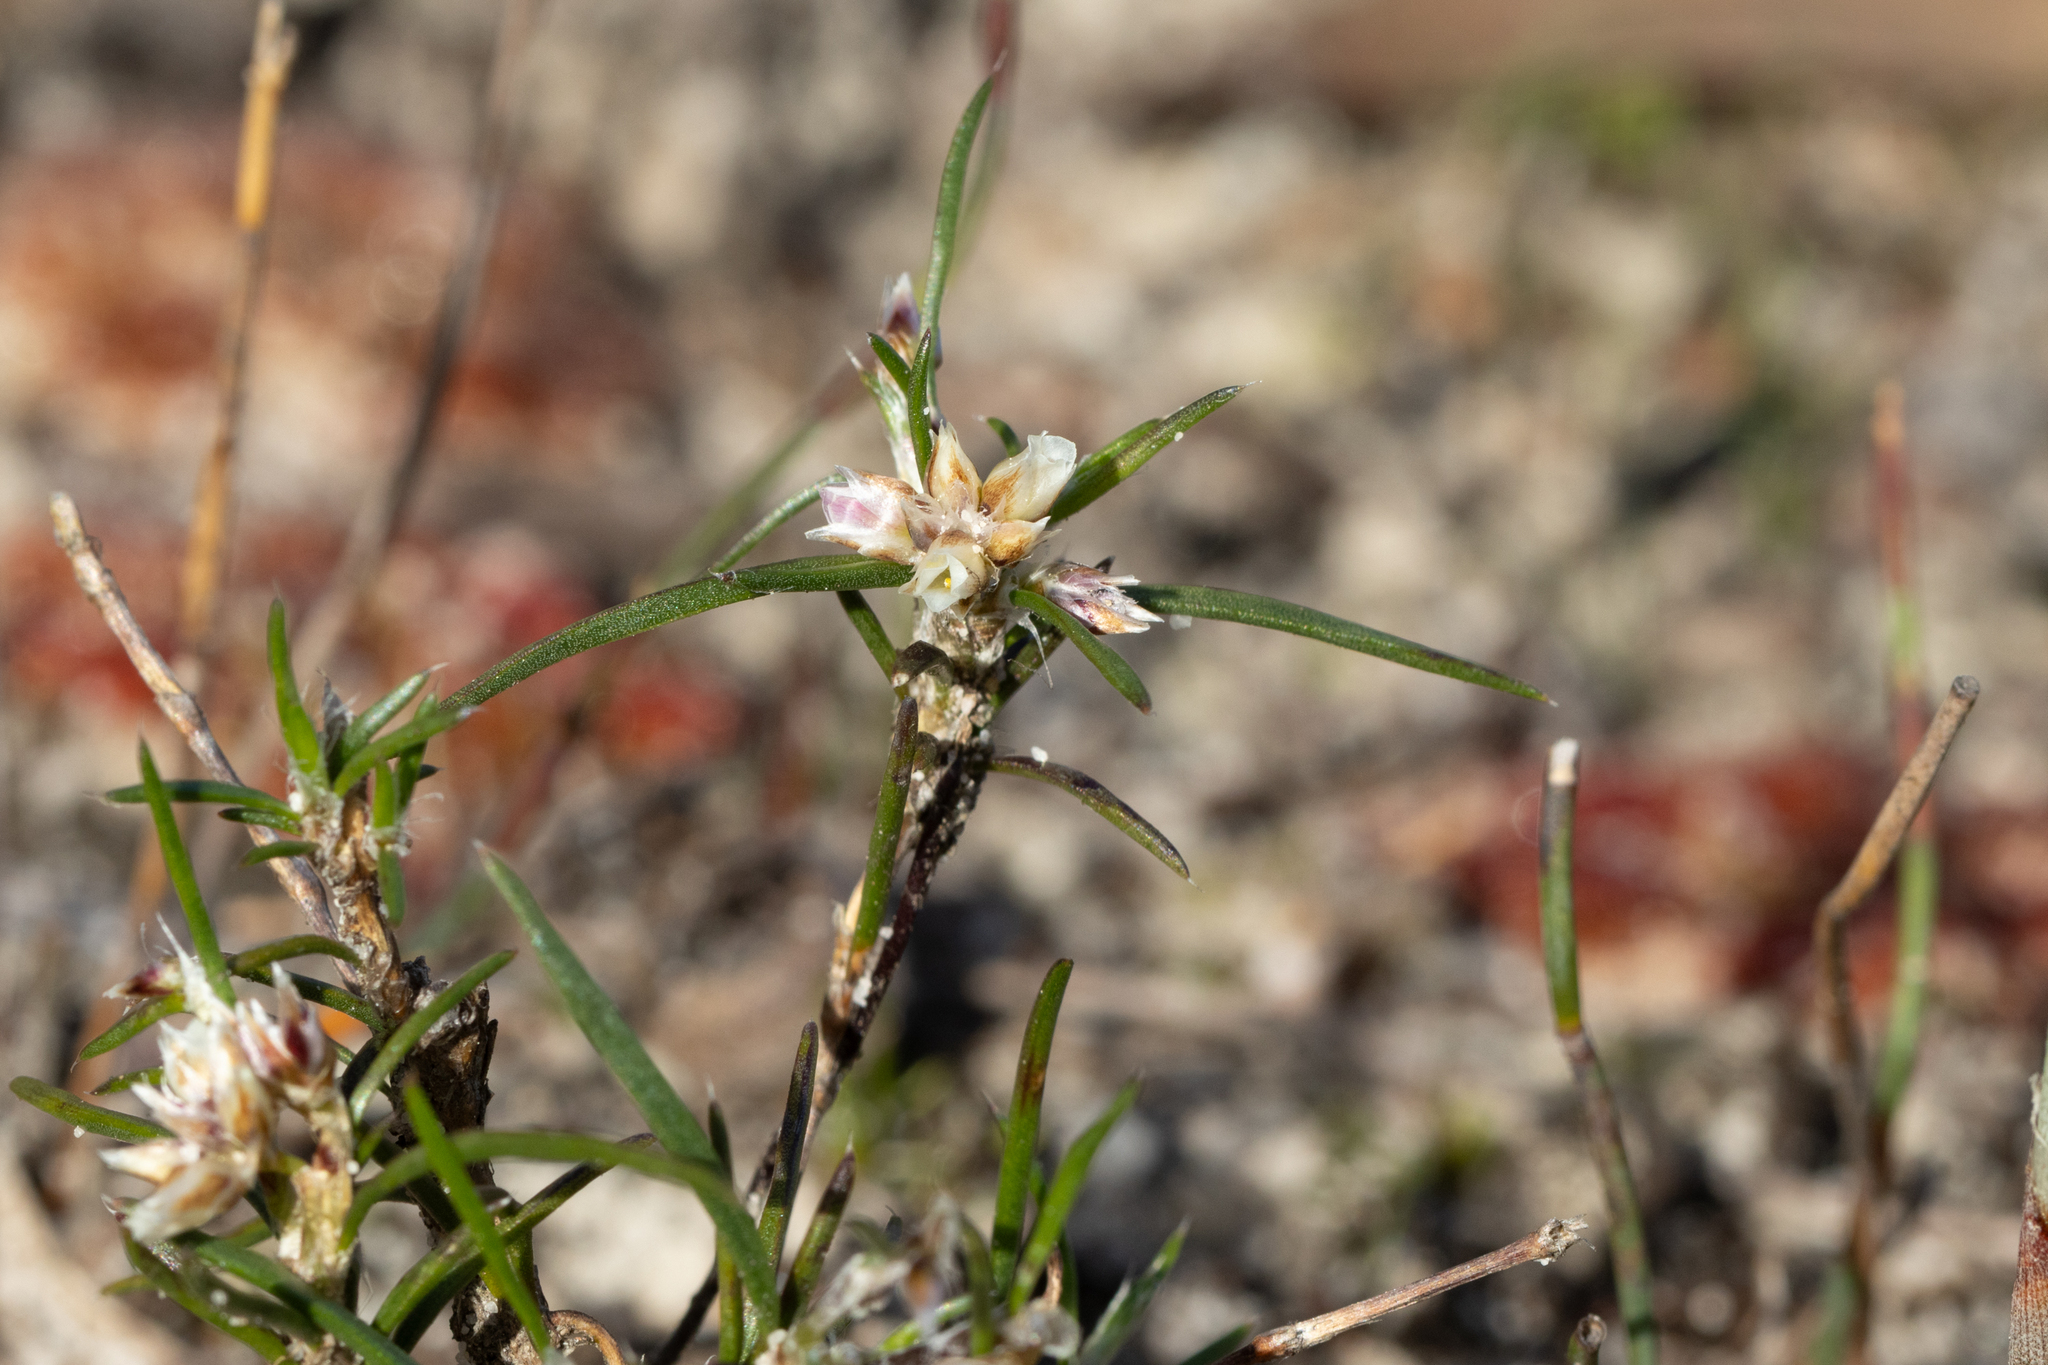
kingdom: Plantae
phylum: Tracheophyta
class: Liliopsida
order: Asparagales
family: Asparagaceae
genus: Laxmannia
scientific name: Laxmannia orientalis
